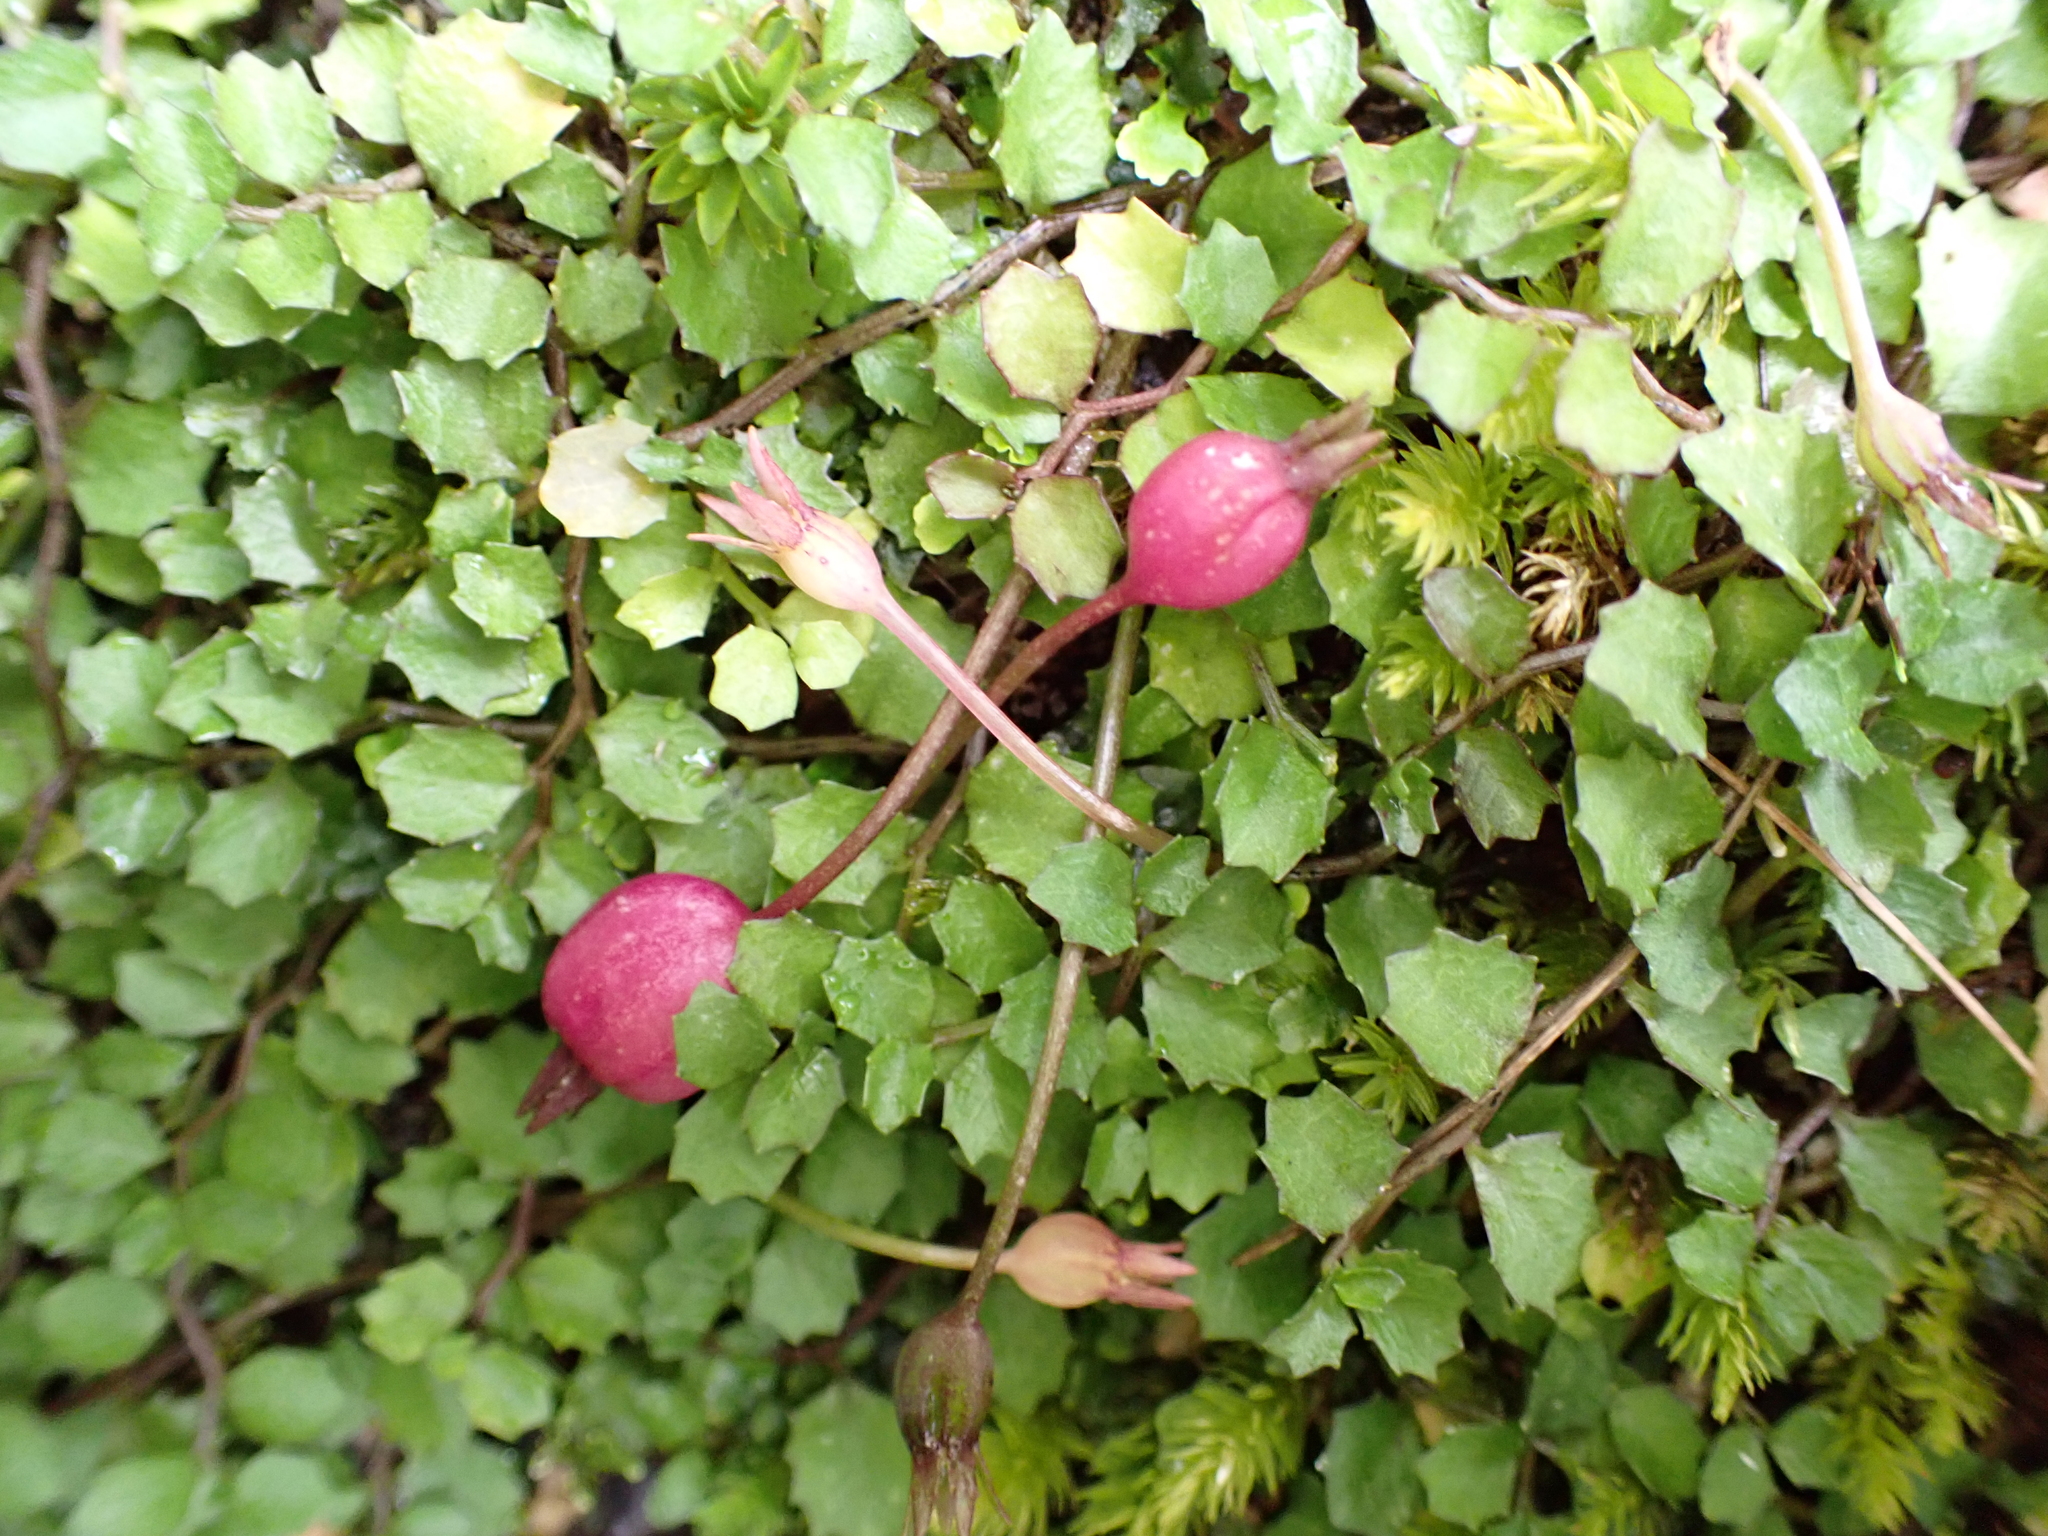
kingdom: Plantae
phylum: Tracheophyta
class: Magnoliopsida
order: Asterales
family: Campanulaceae
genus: Lobelia
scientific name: Lobelia angulata
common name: Lawn lobelia
